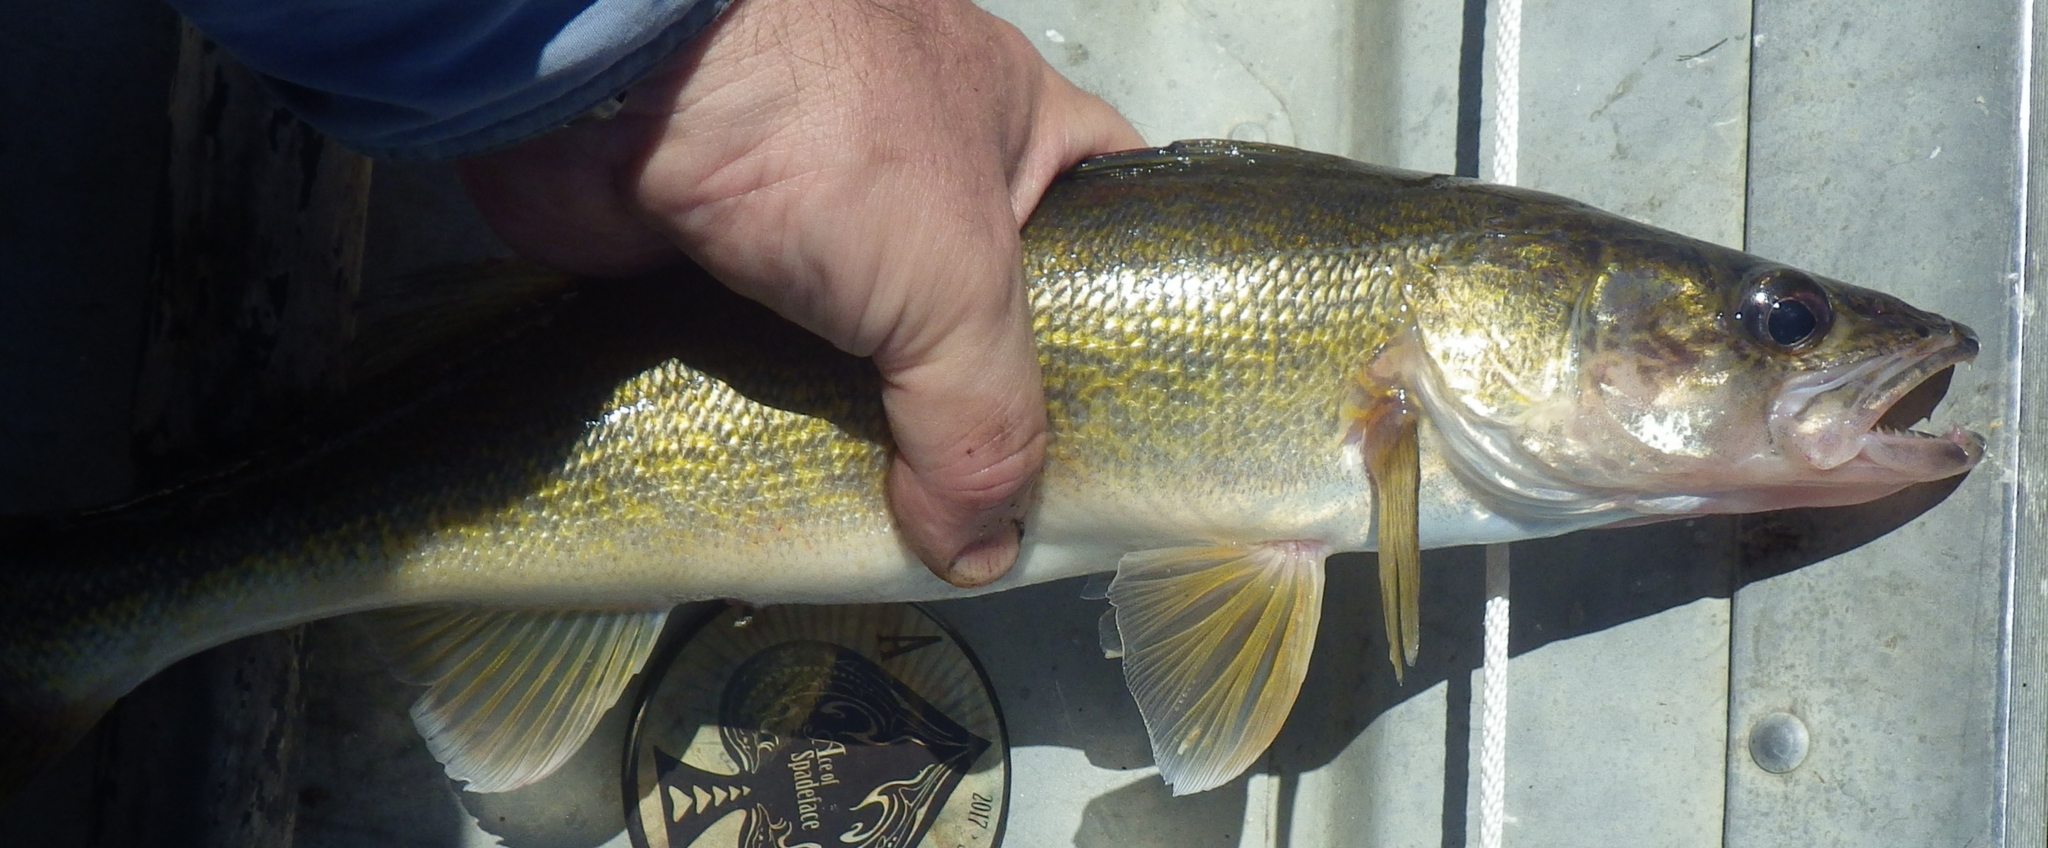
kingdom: Animalia
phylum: Chordata
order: Perciformes
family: Percidae
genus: Sander
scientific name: Sander vitreus
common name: Walleye
